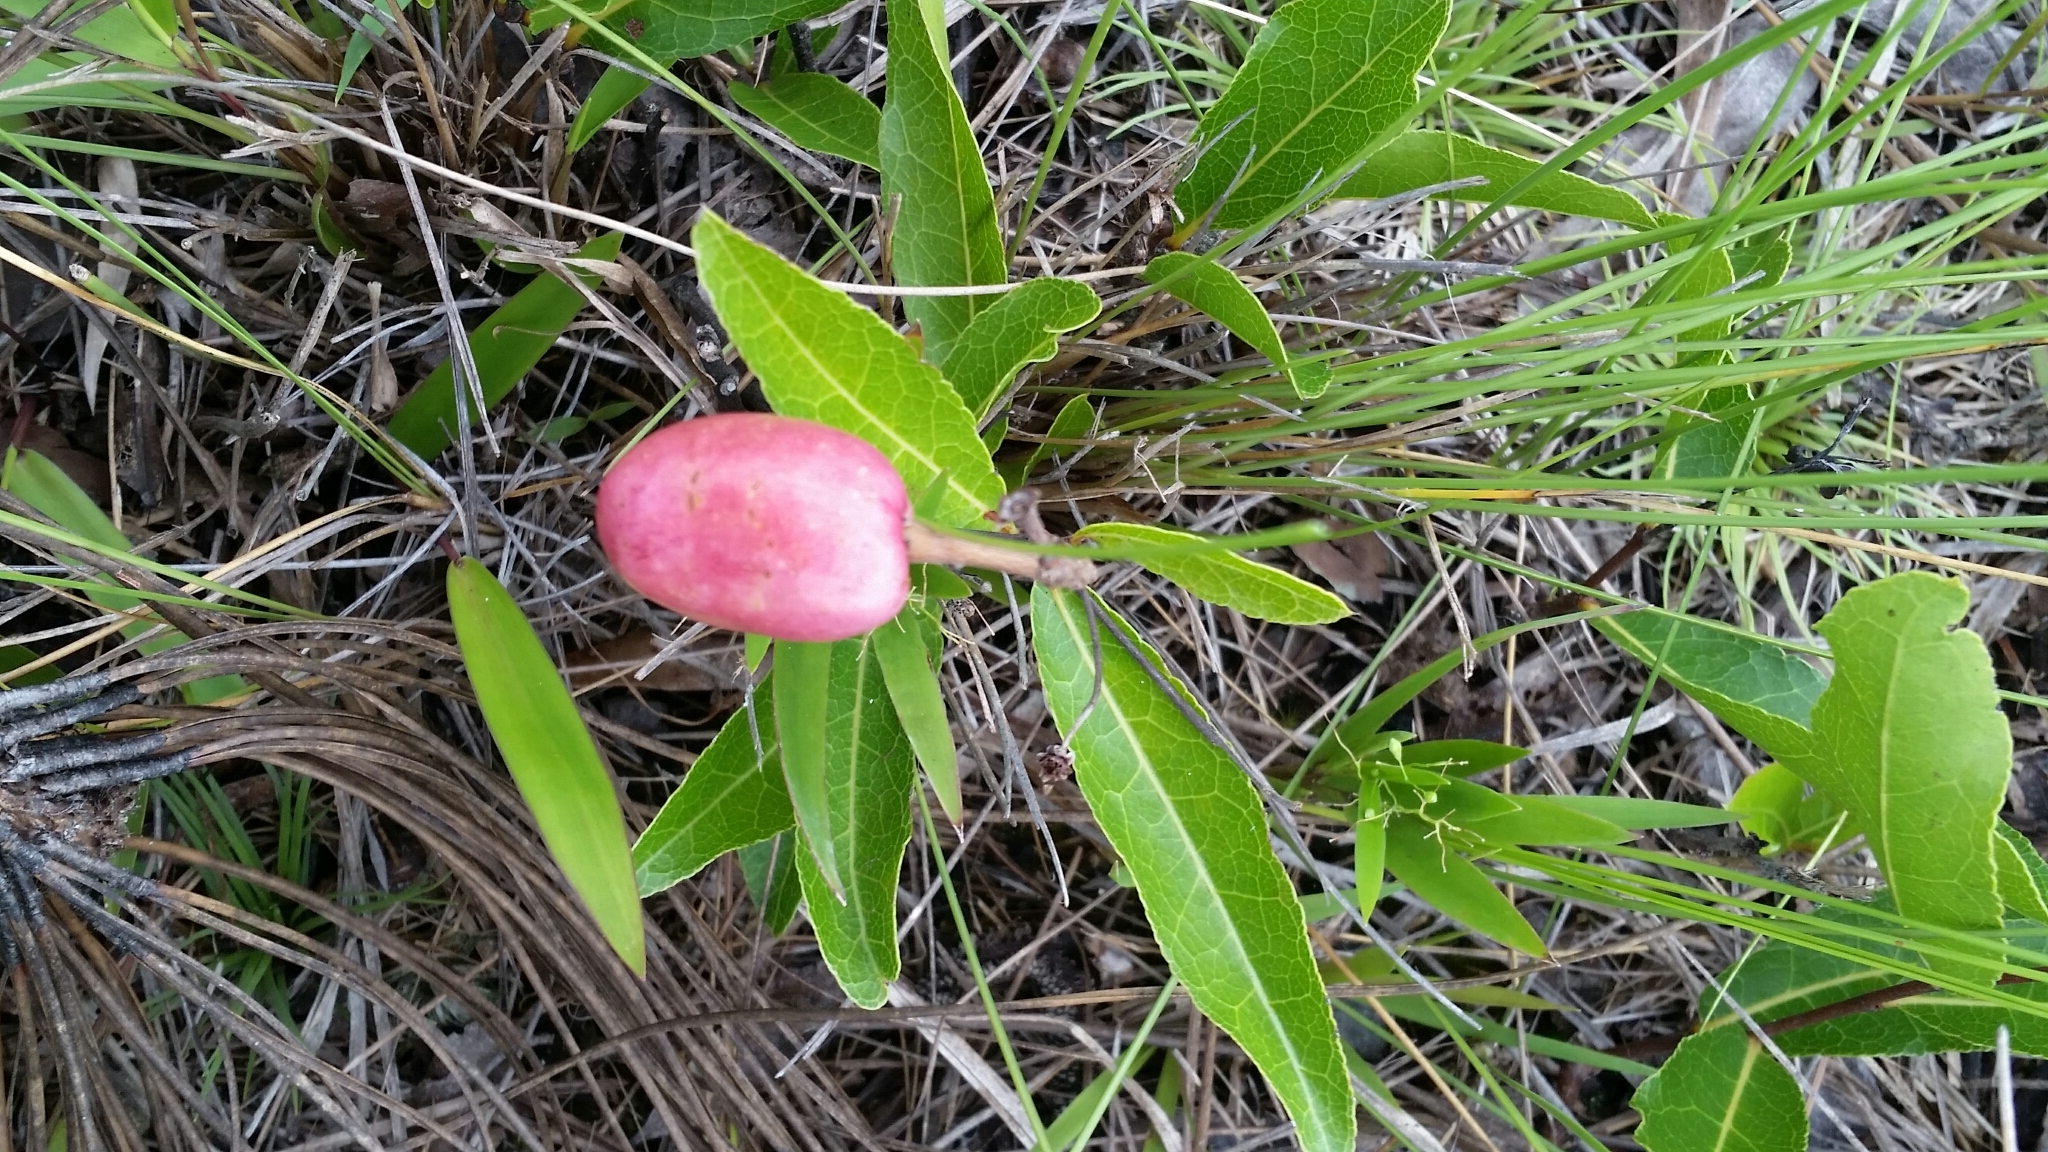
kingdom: Plantae
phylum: Tracheophyta
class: Magnoliopsida
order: Malpighiales
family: Chrysobalanaceae
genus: Geobalanus
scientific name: Geobalanus oblongifolius
